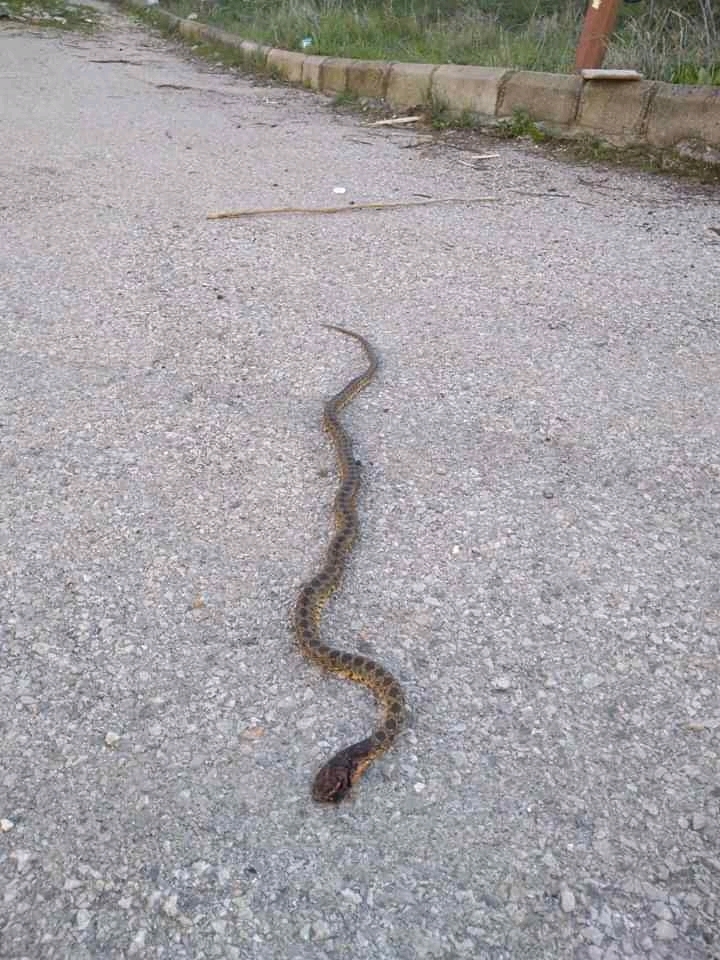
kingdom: Animalia
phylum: Chordata
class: Squamata
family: Colubridae
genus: Hemorrhois
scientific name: Hemorrhois hippocrepis
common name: Horseshoe whip snake
